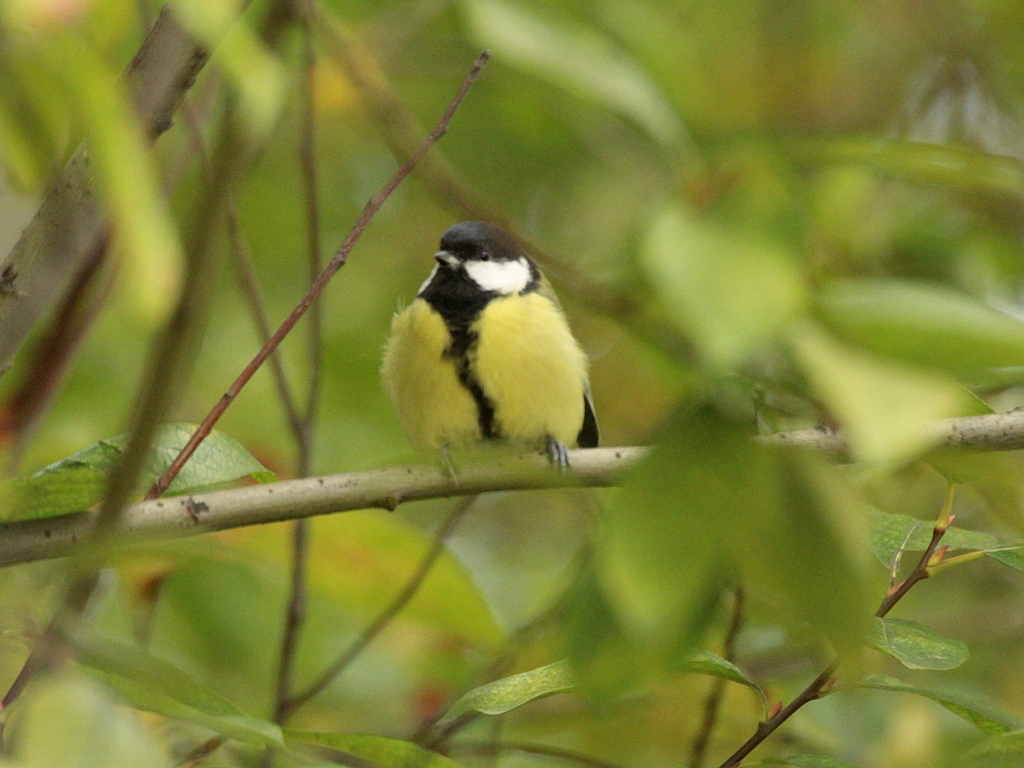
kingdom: Animalia
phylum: Chordata
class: Aves
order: Passeriformes
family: Paridae
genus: Parus
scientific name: Parus major
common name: Great tit
